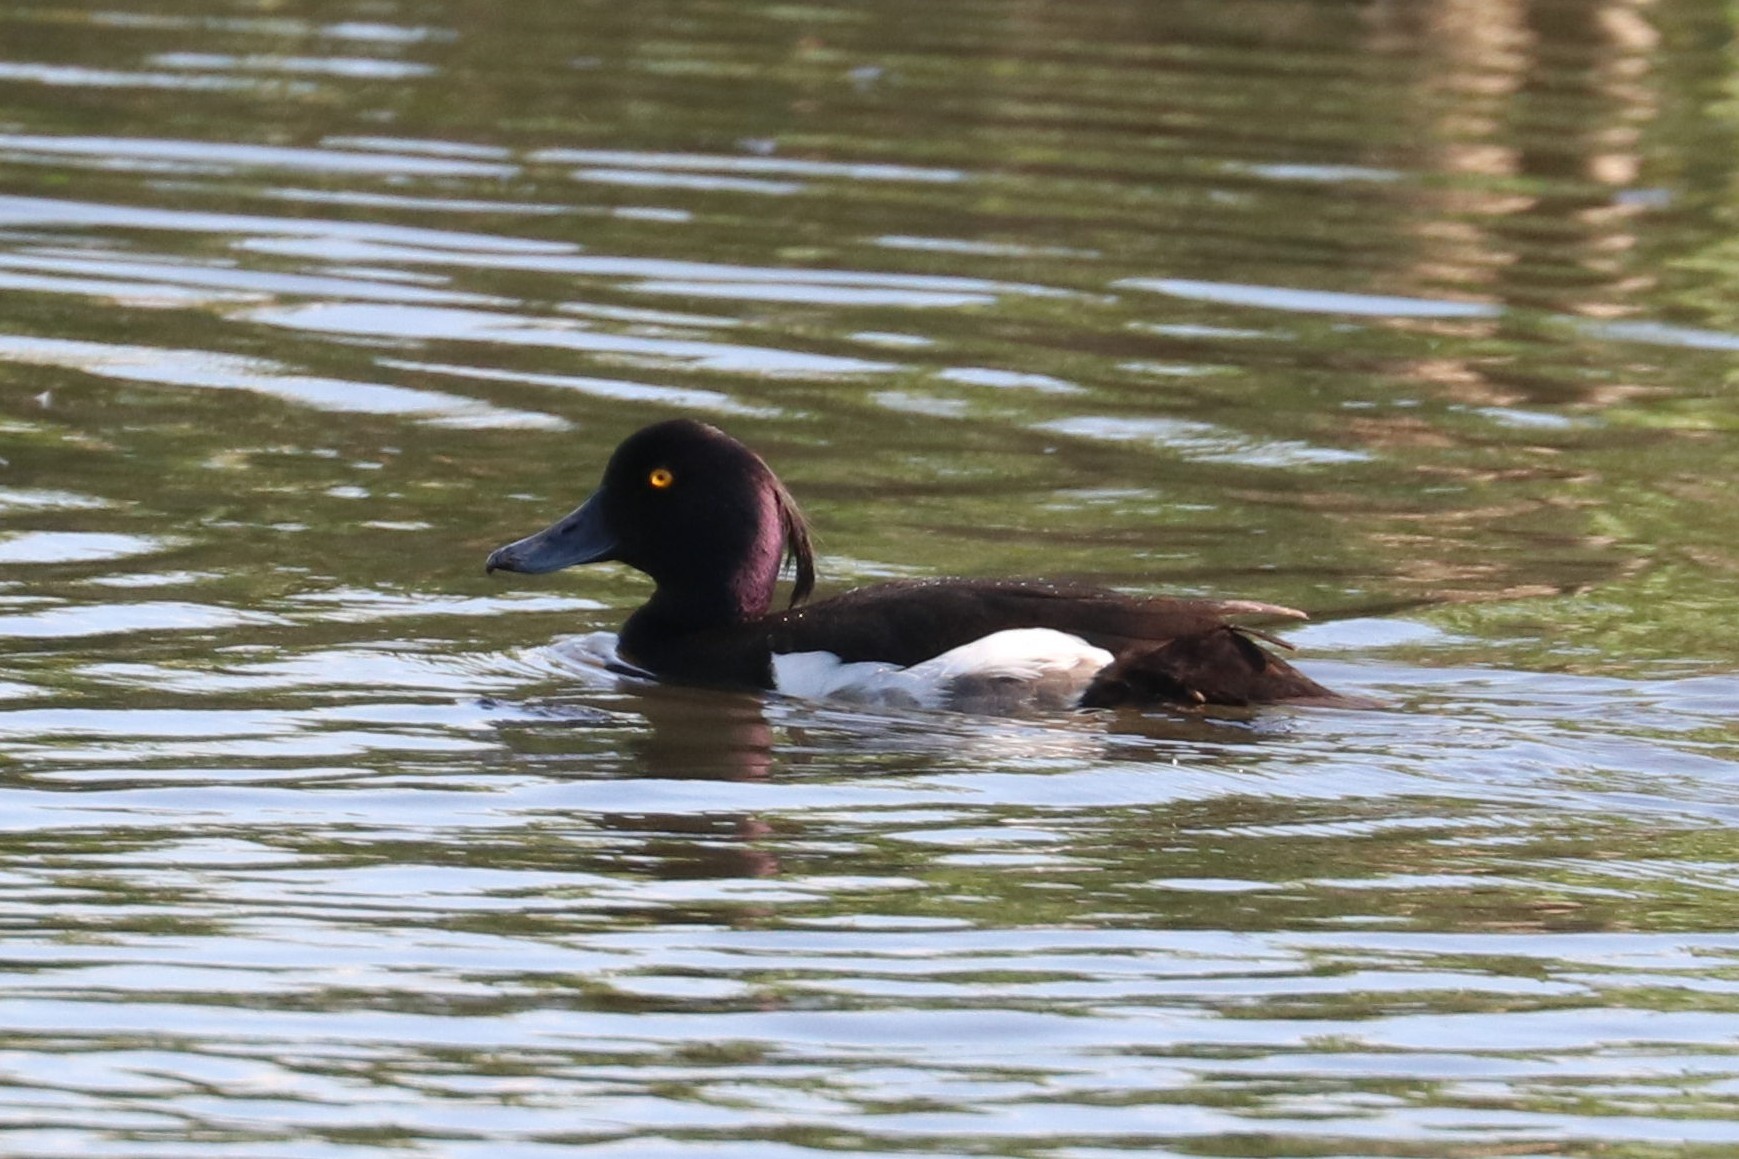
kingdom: Animalia
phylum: Chordata
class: Aves
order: Anseriformes
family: Anatidae
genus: Aythya
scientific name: Aythya fuligula
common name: Tufted duck
